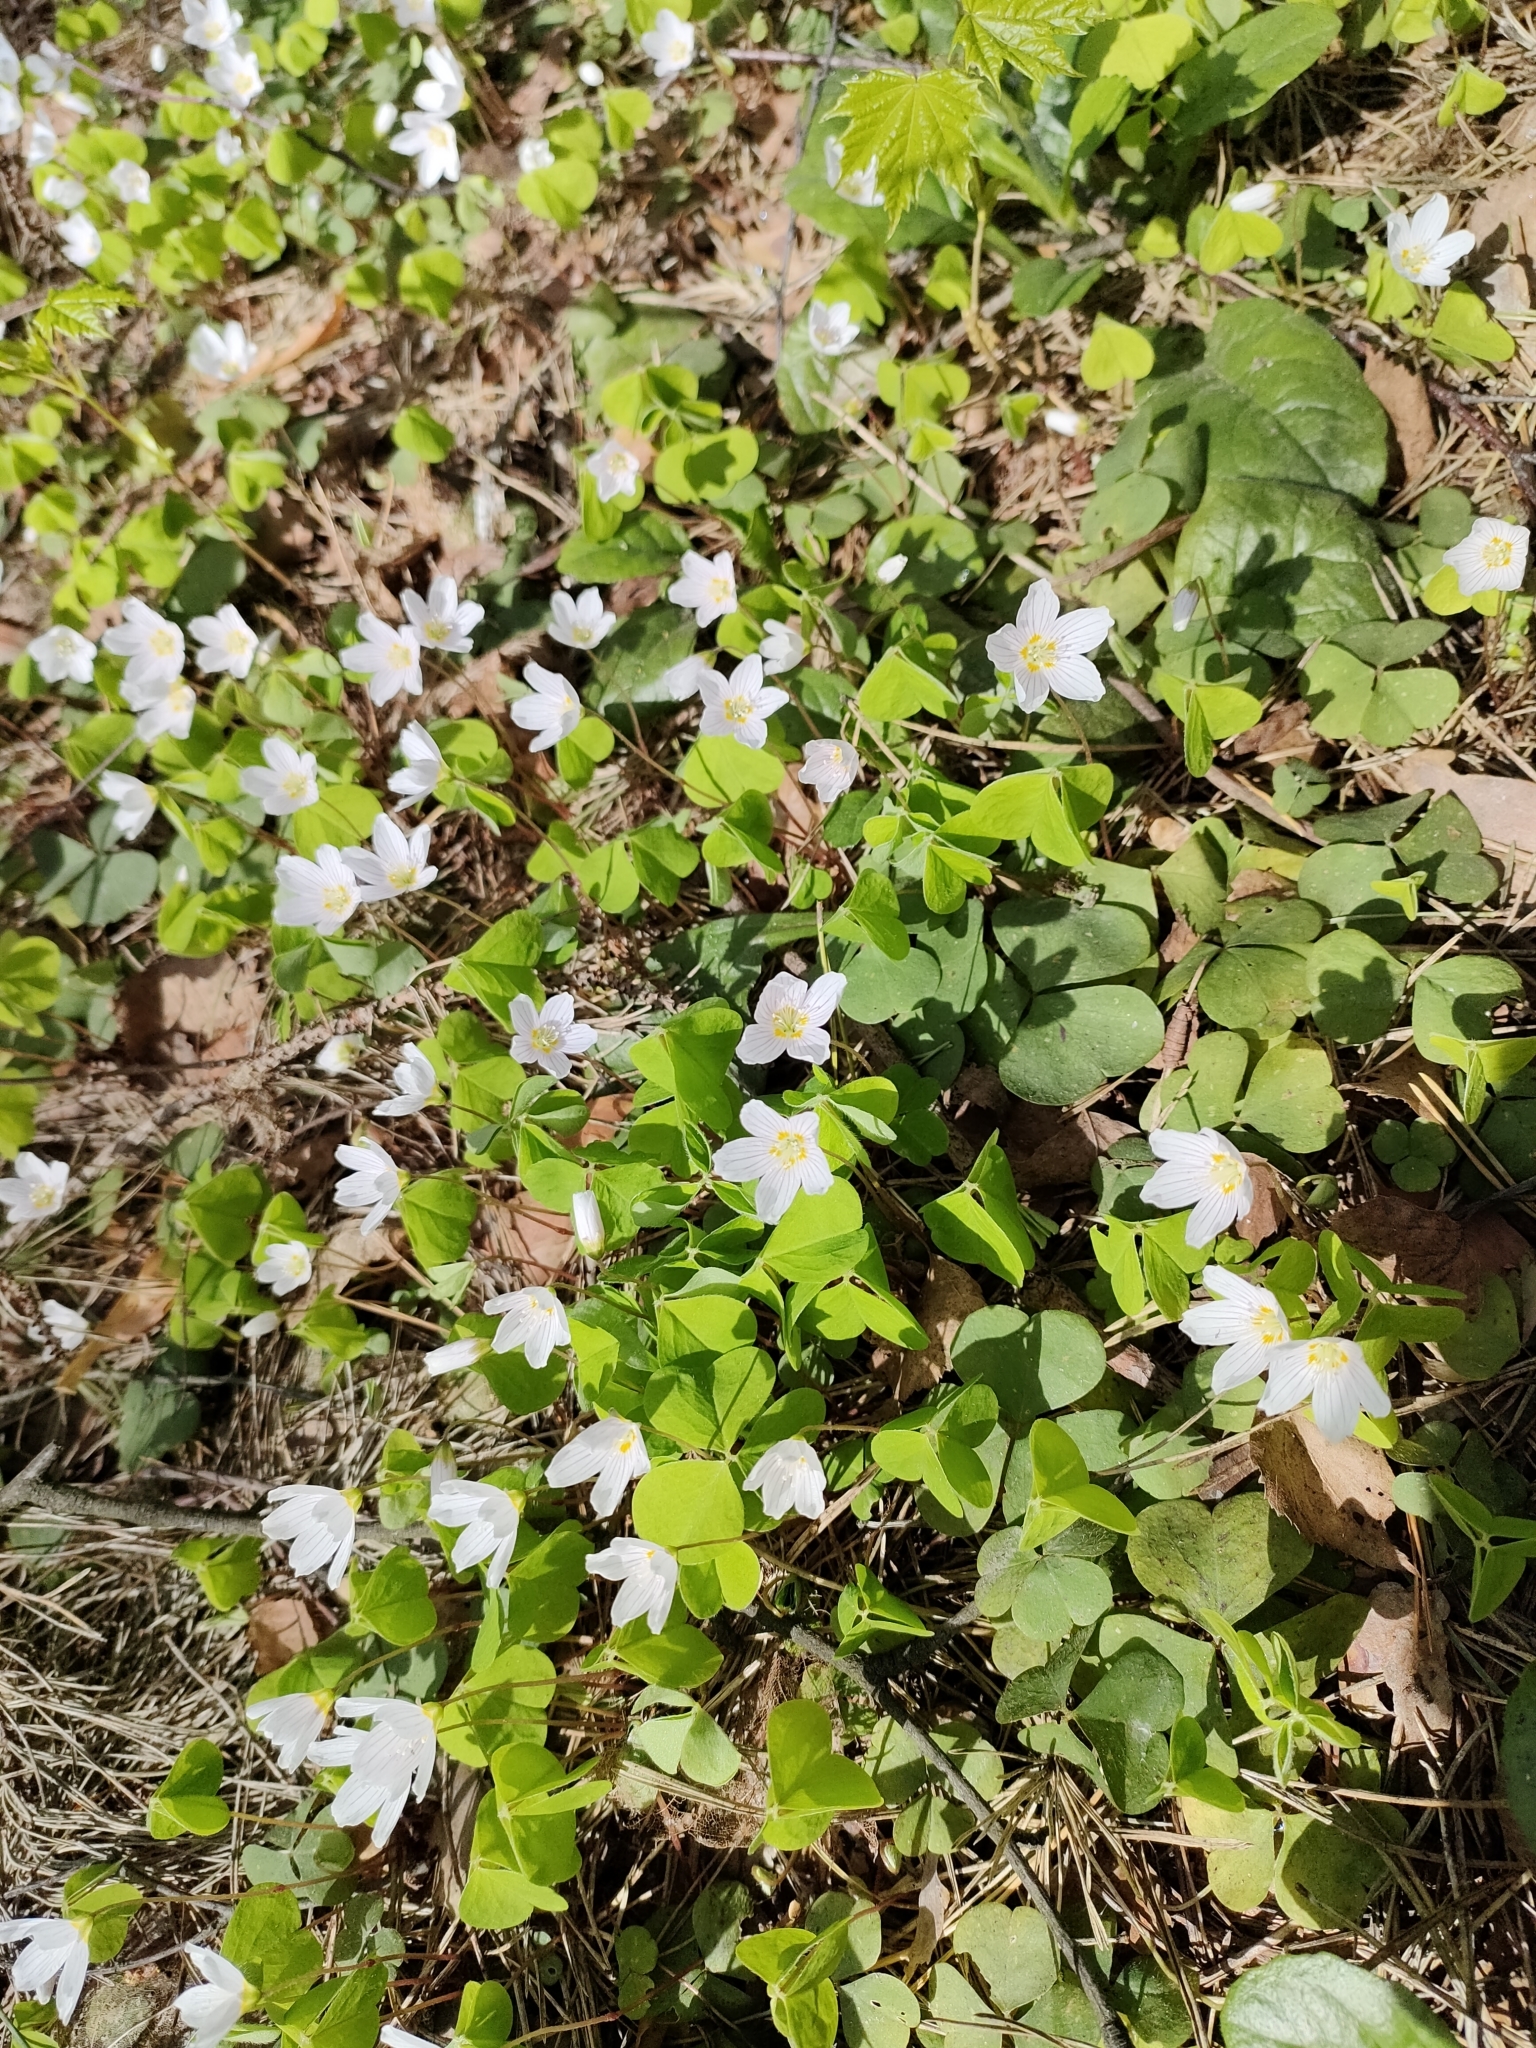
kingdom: Plantae
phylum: Tracheophyta
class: Magnoliopsida
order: Oxalidales
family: Oxalidaceae
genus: Oxalis
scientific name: Oxalis acetosella
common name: Wood-sorrel
